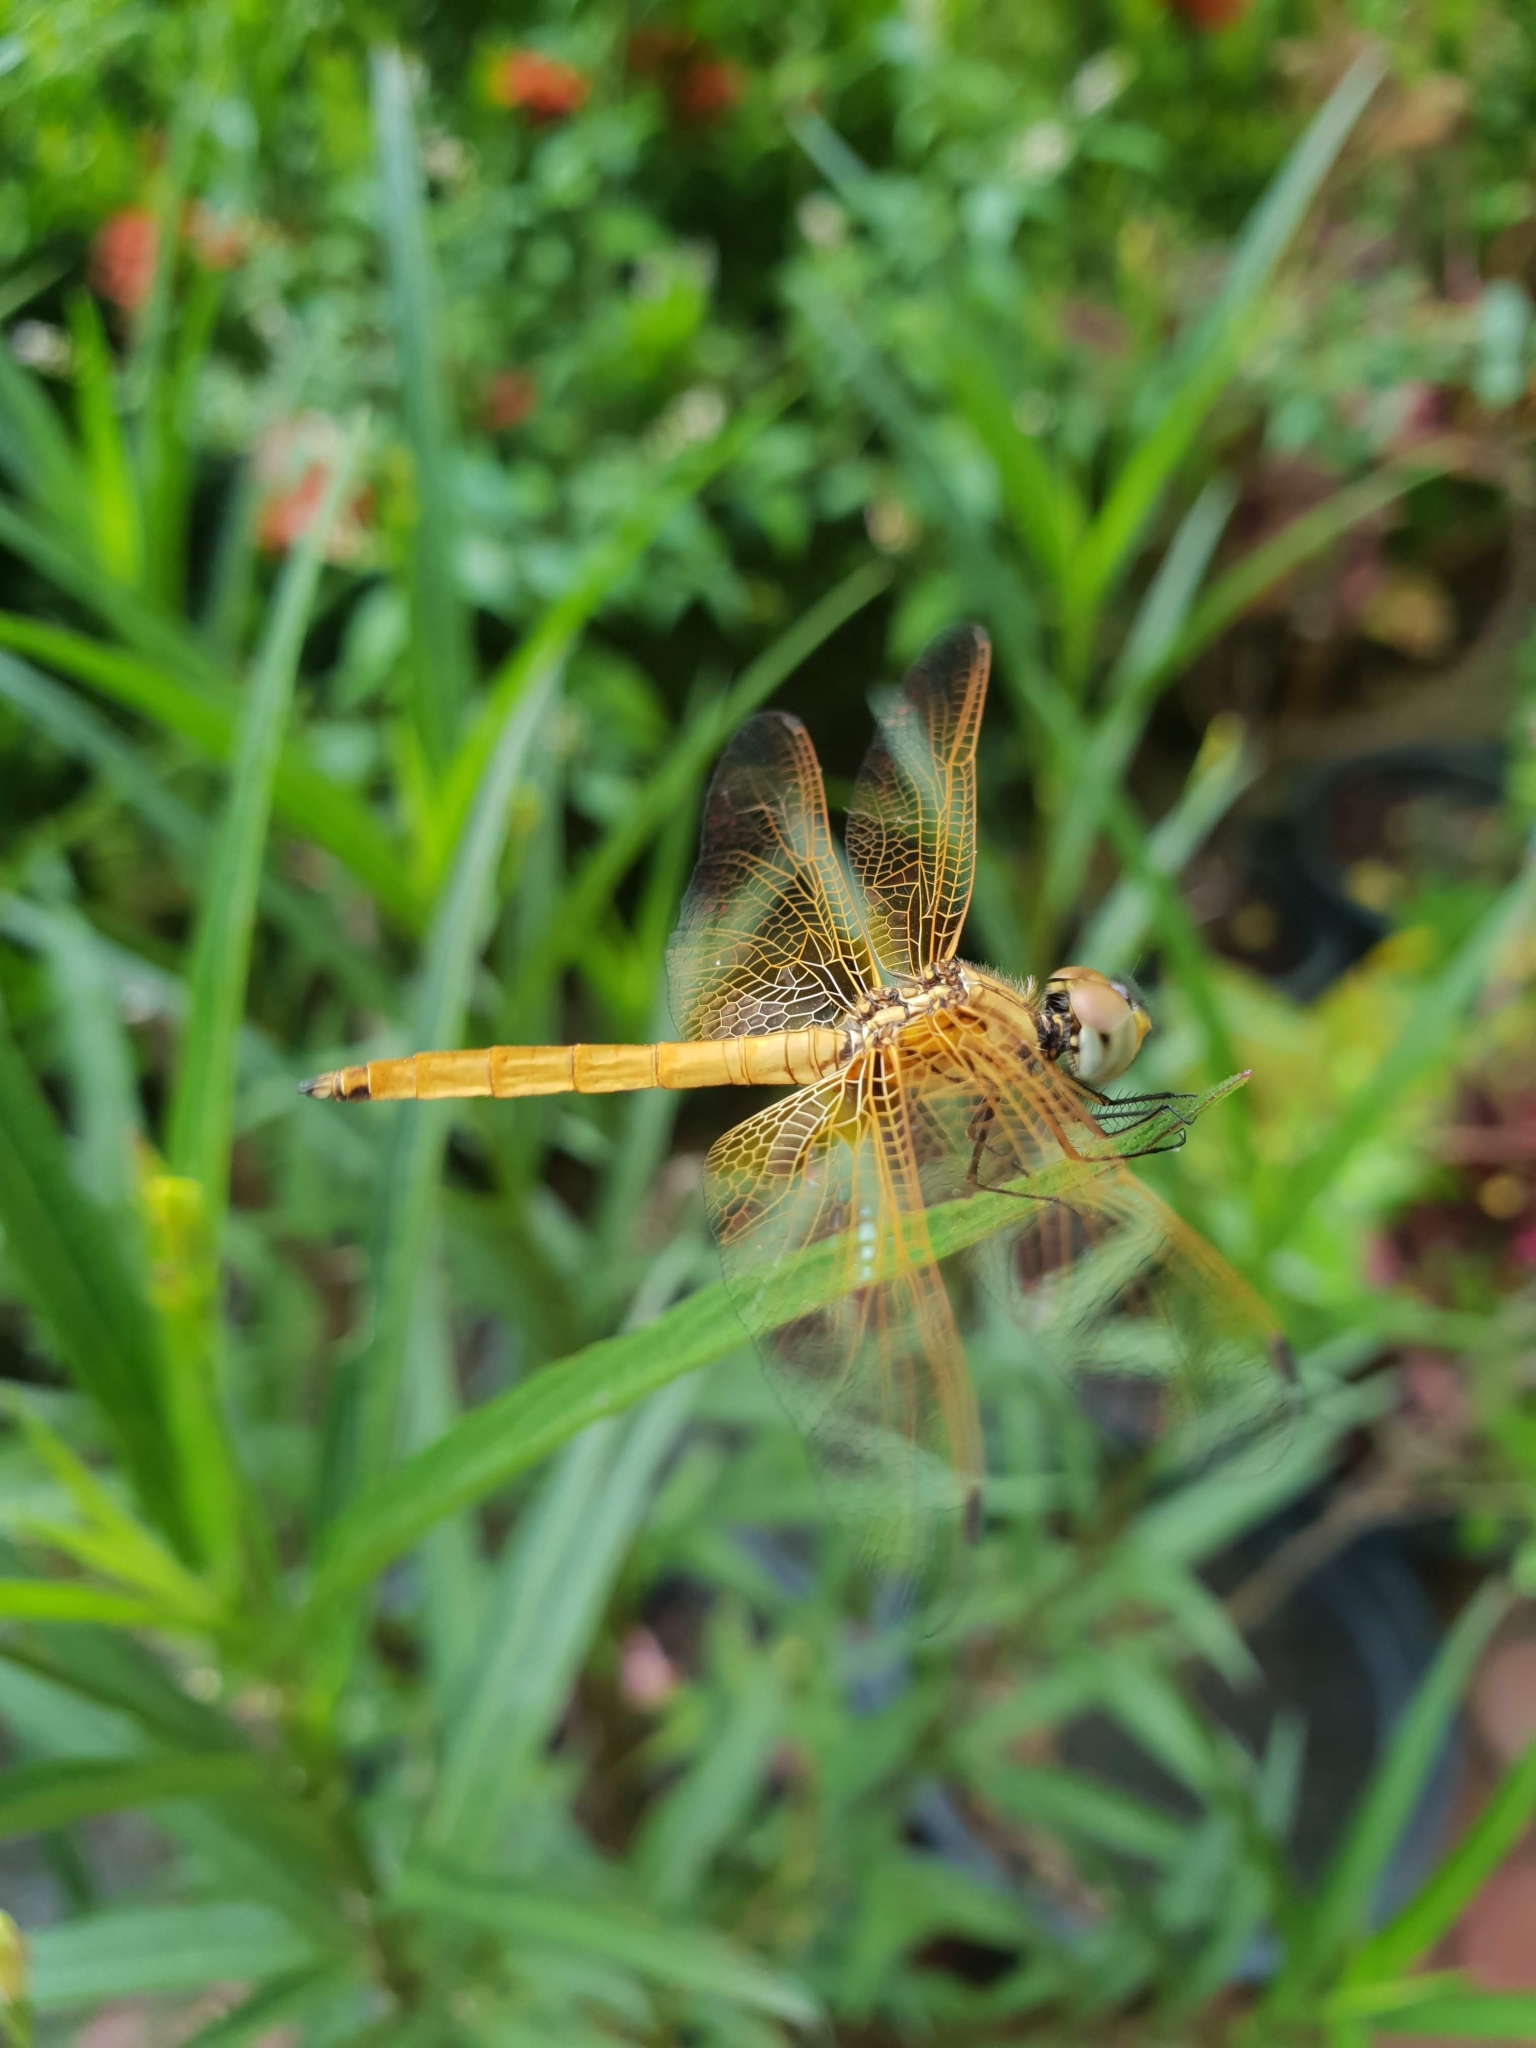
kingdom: Animalia
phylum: Arthropoda
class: Insecta
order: Odonata
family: Libellulidae
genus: Trithemis
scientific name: Trithemis aurora
